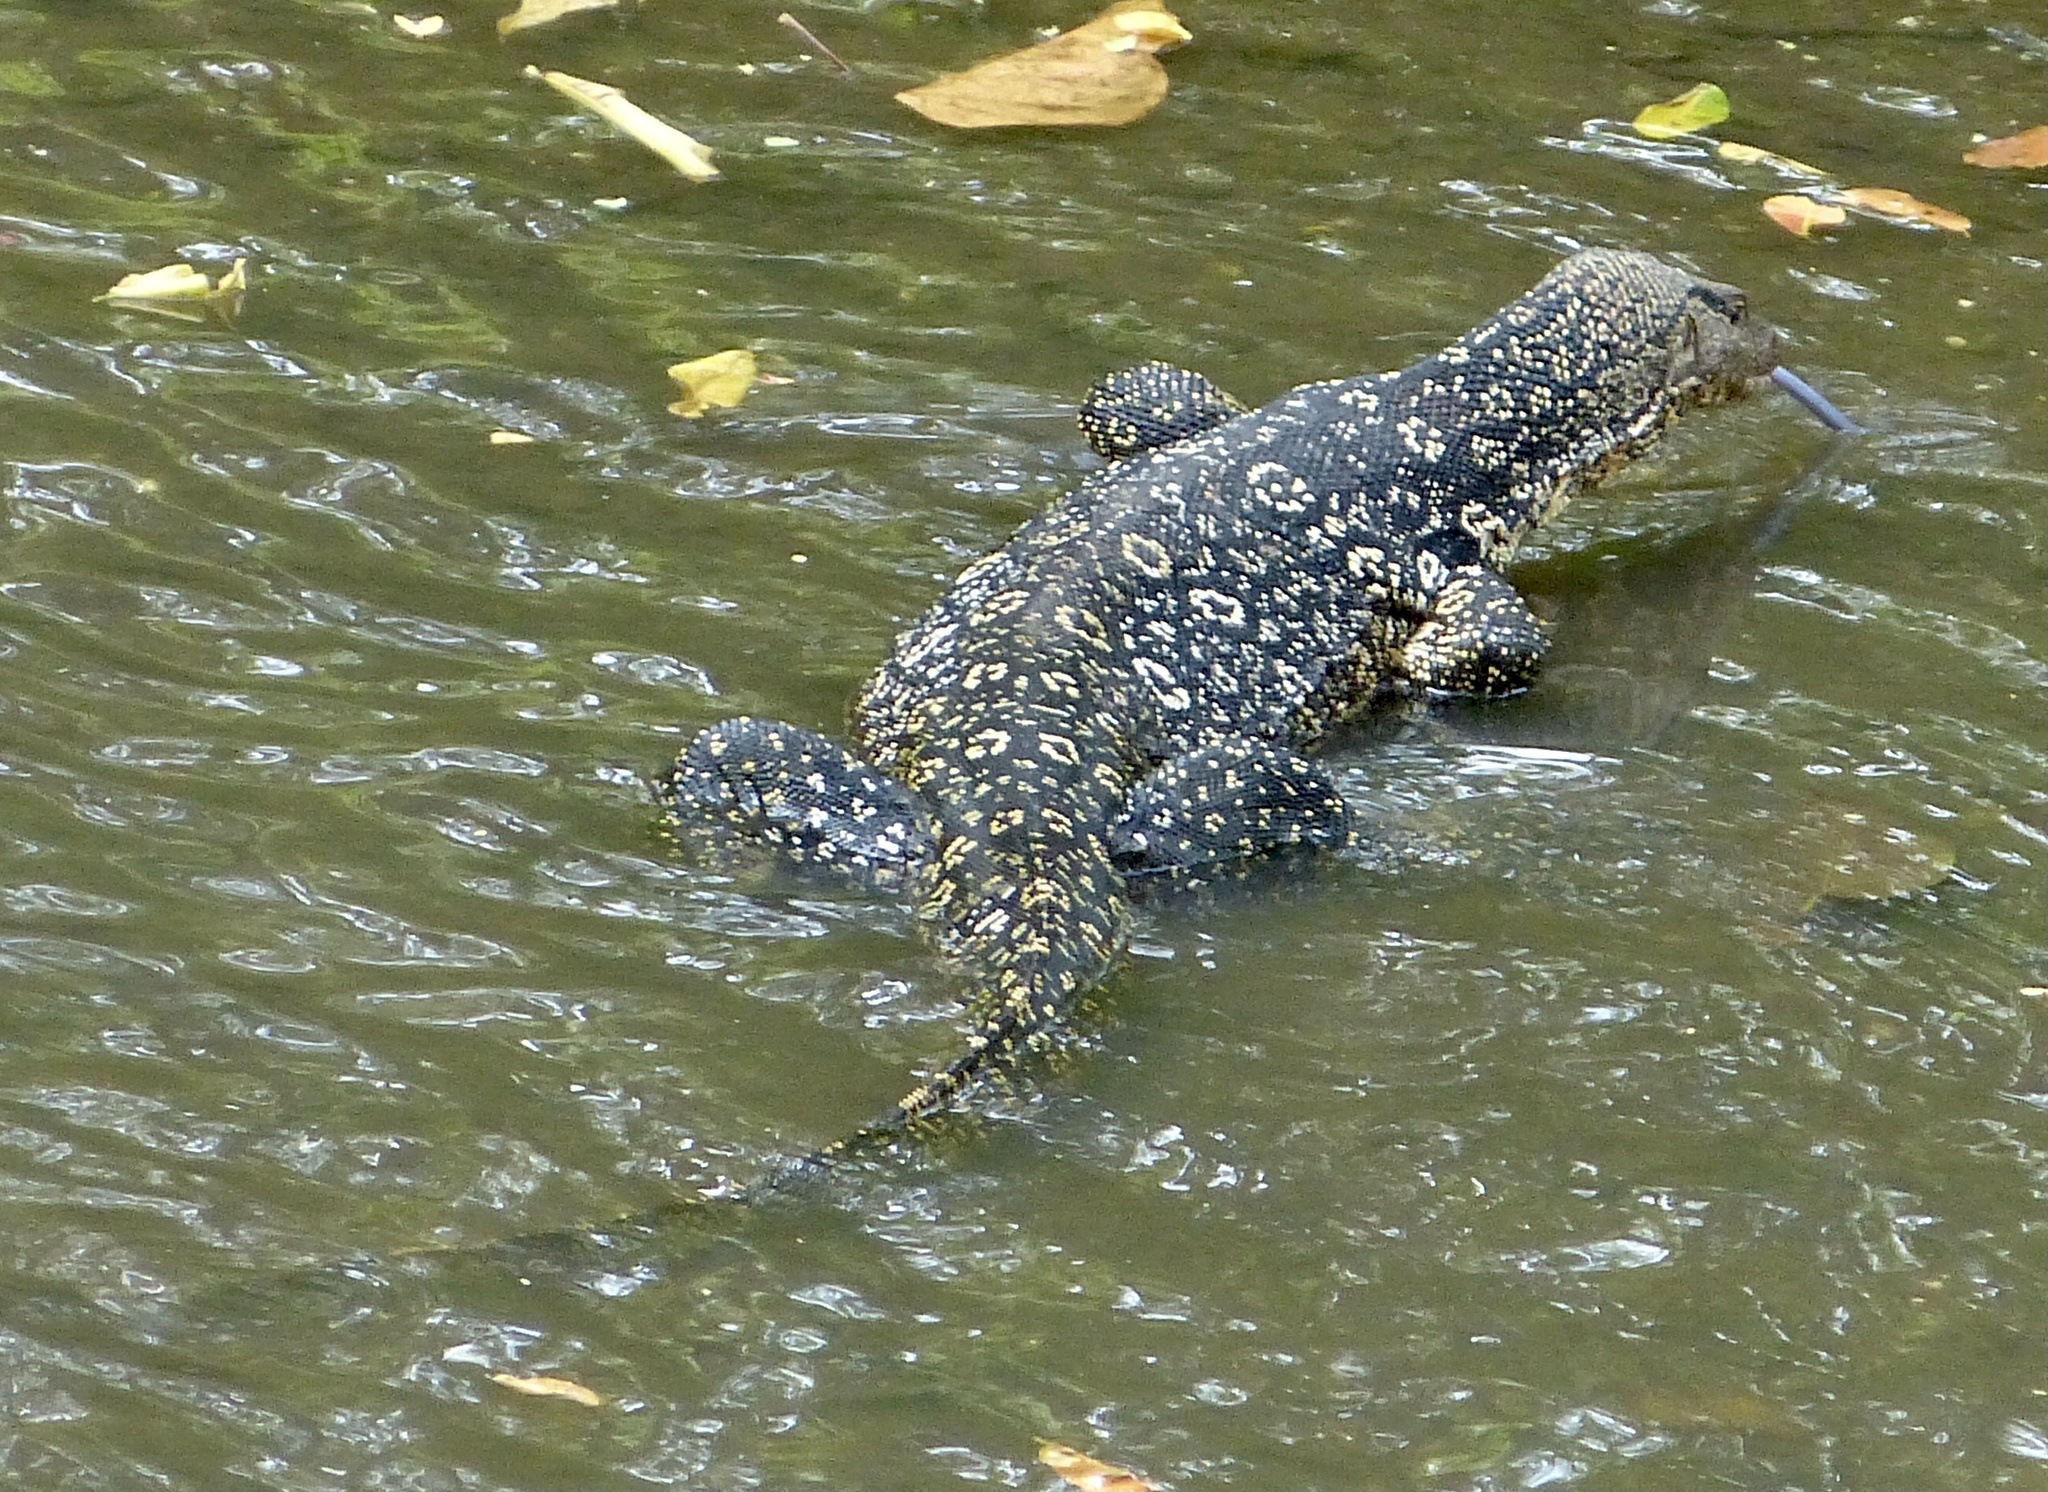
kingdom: Animalia
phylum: Chordata
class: Squamata
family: Varanidae
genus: Varanus
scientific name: Varanus salvator
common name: Common water monitor
